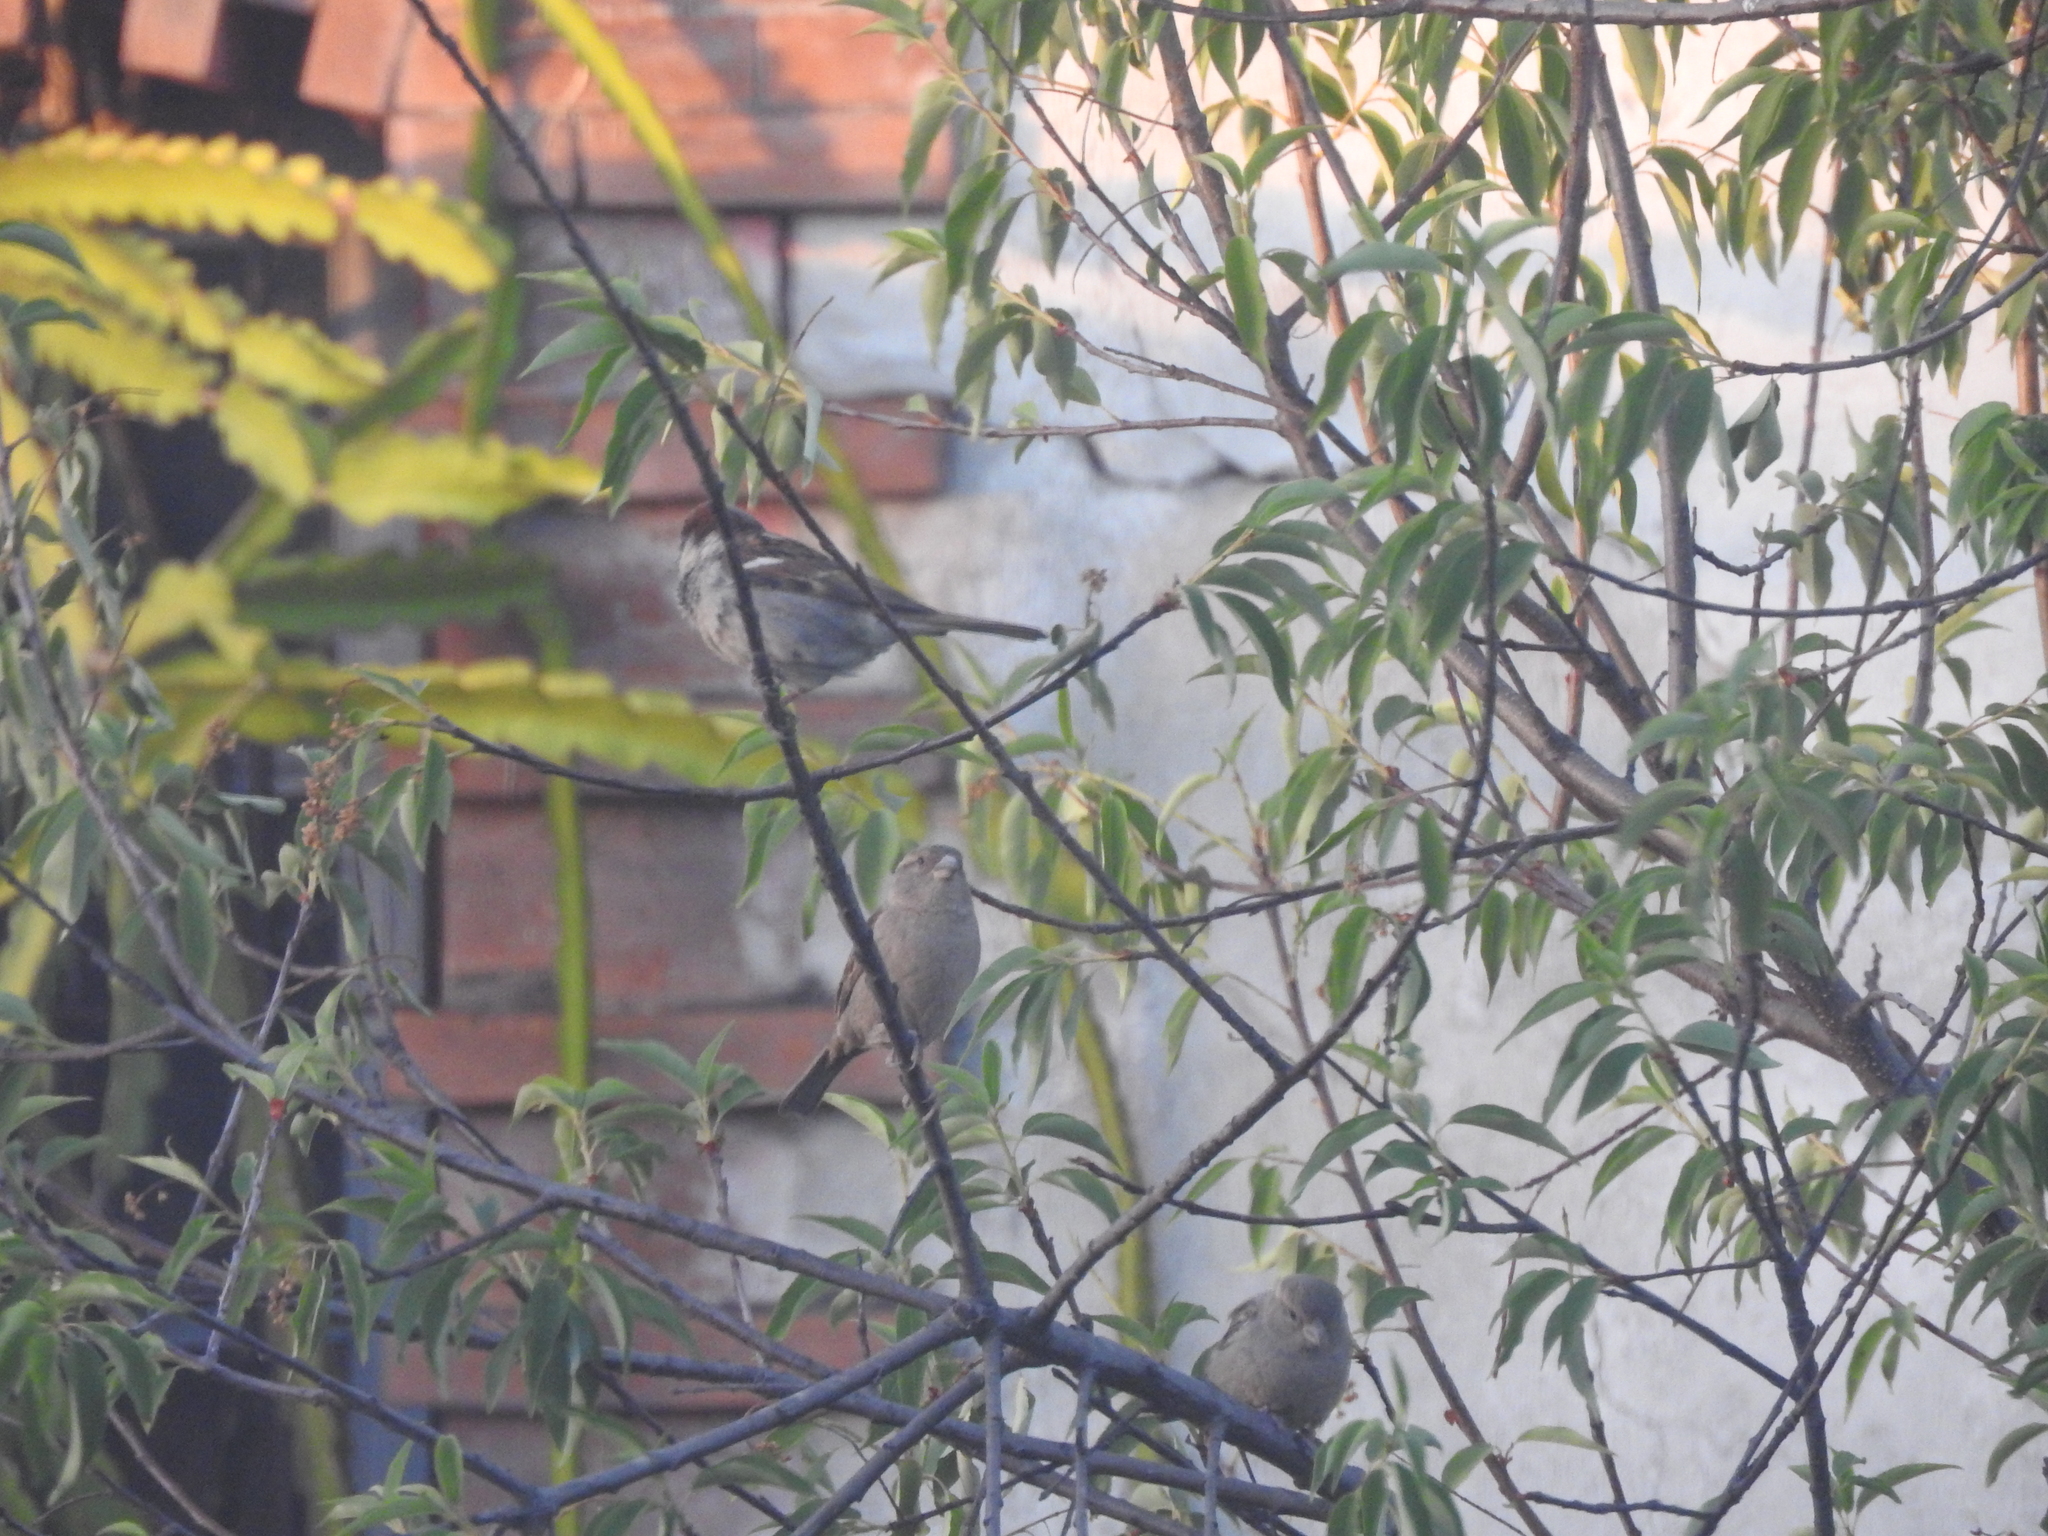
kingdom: Animalia
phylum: Chordata
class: Aves
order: Passeriformes
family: Passeridae
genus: Passer
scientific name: Passer domesticus
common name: House sparrow
